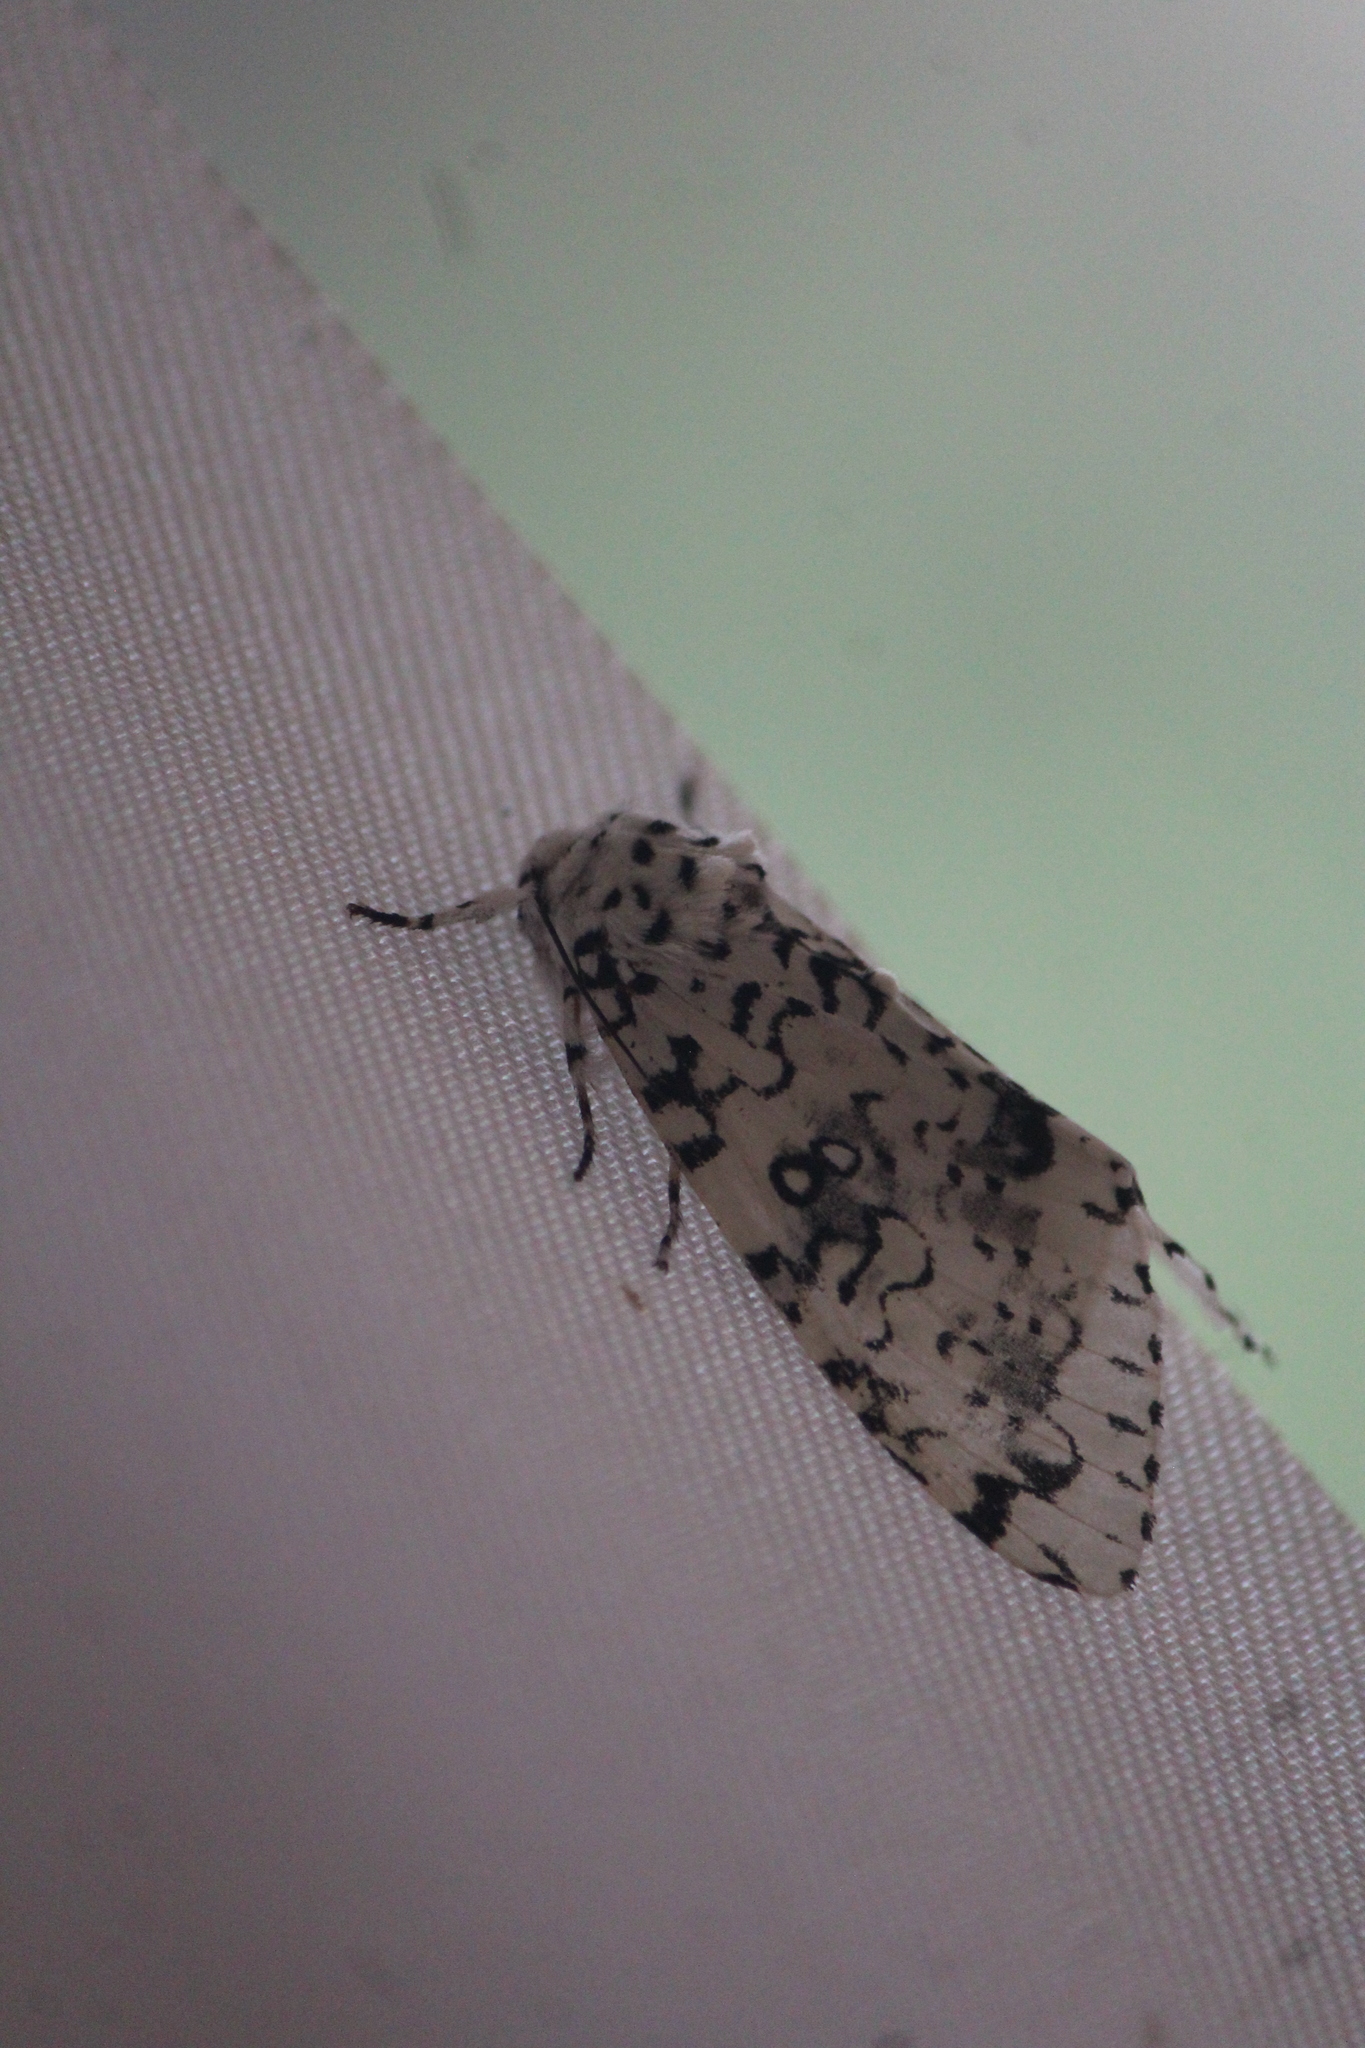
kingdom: Animalia
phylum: Arthropoda
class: Insecta
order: Lepidoptera
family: Noctuidae
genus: Lichnoptera
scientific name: Lichnoptera decora
